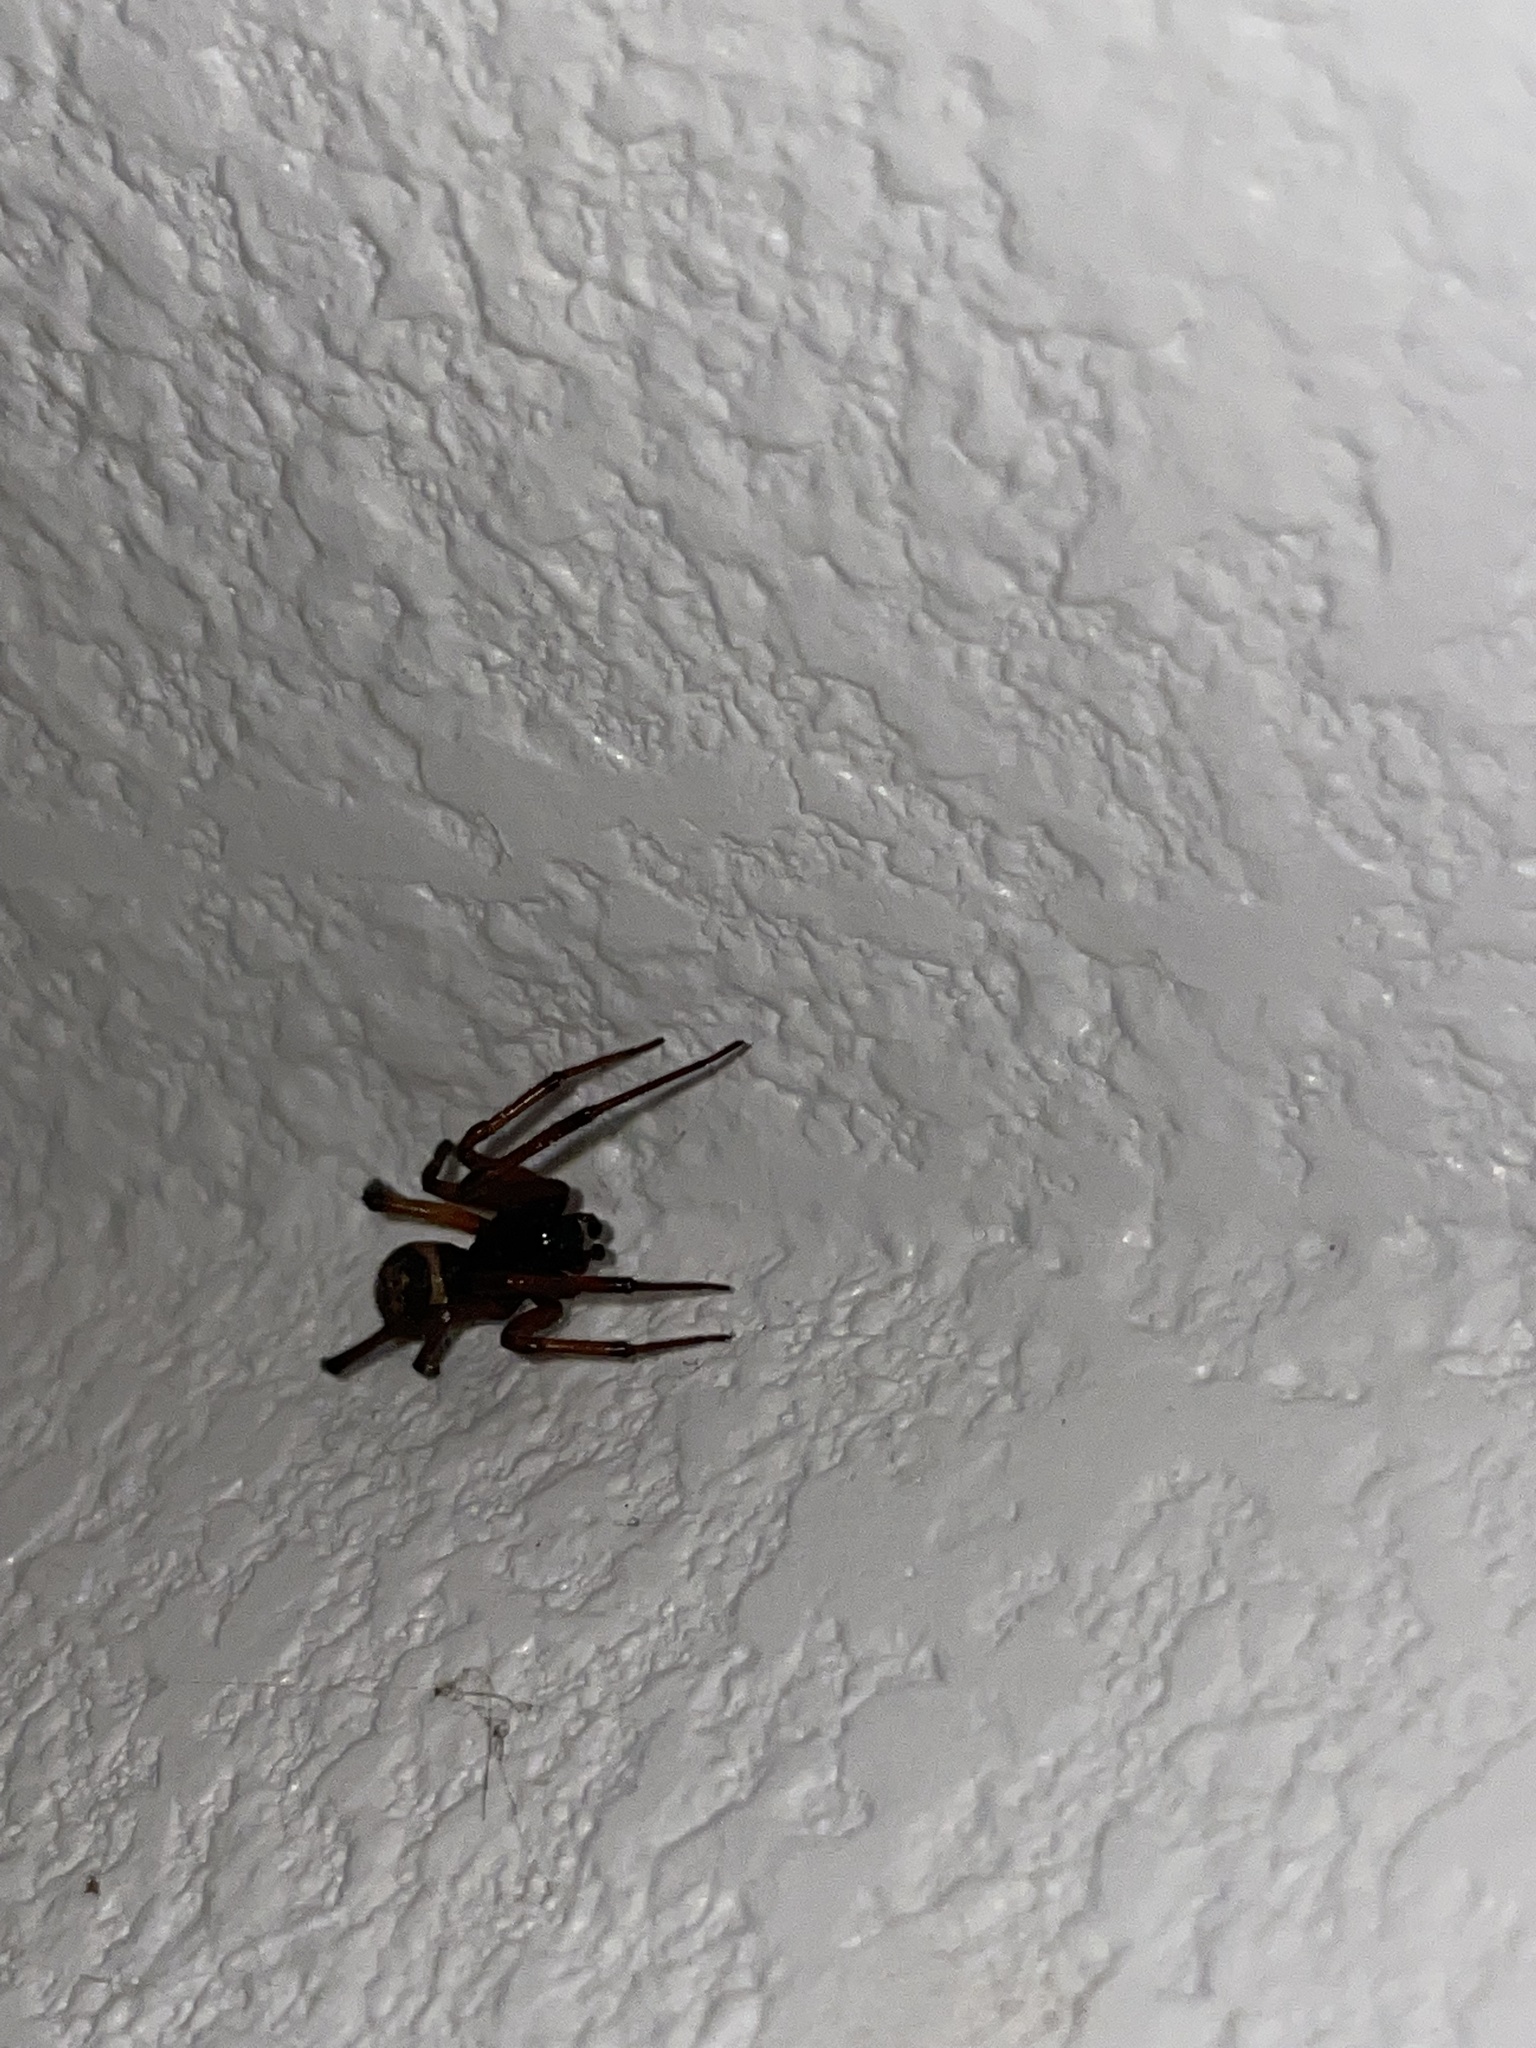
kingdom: Animalia
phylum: Arthropoda
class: Arachnida
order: Araneae
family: Theridiidae
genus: Steatoda
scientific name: Steatoda nobilis
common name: Cobweb weaver
